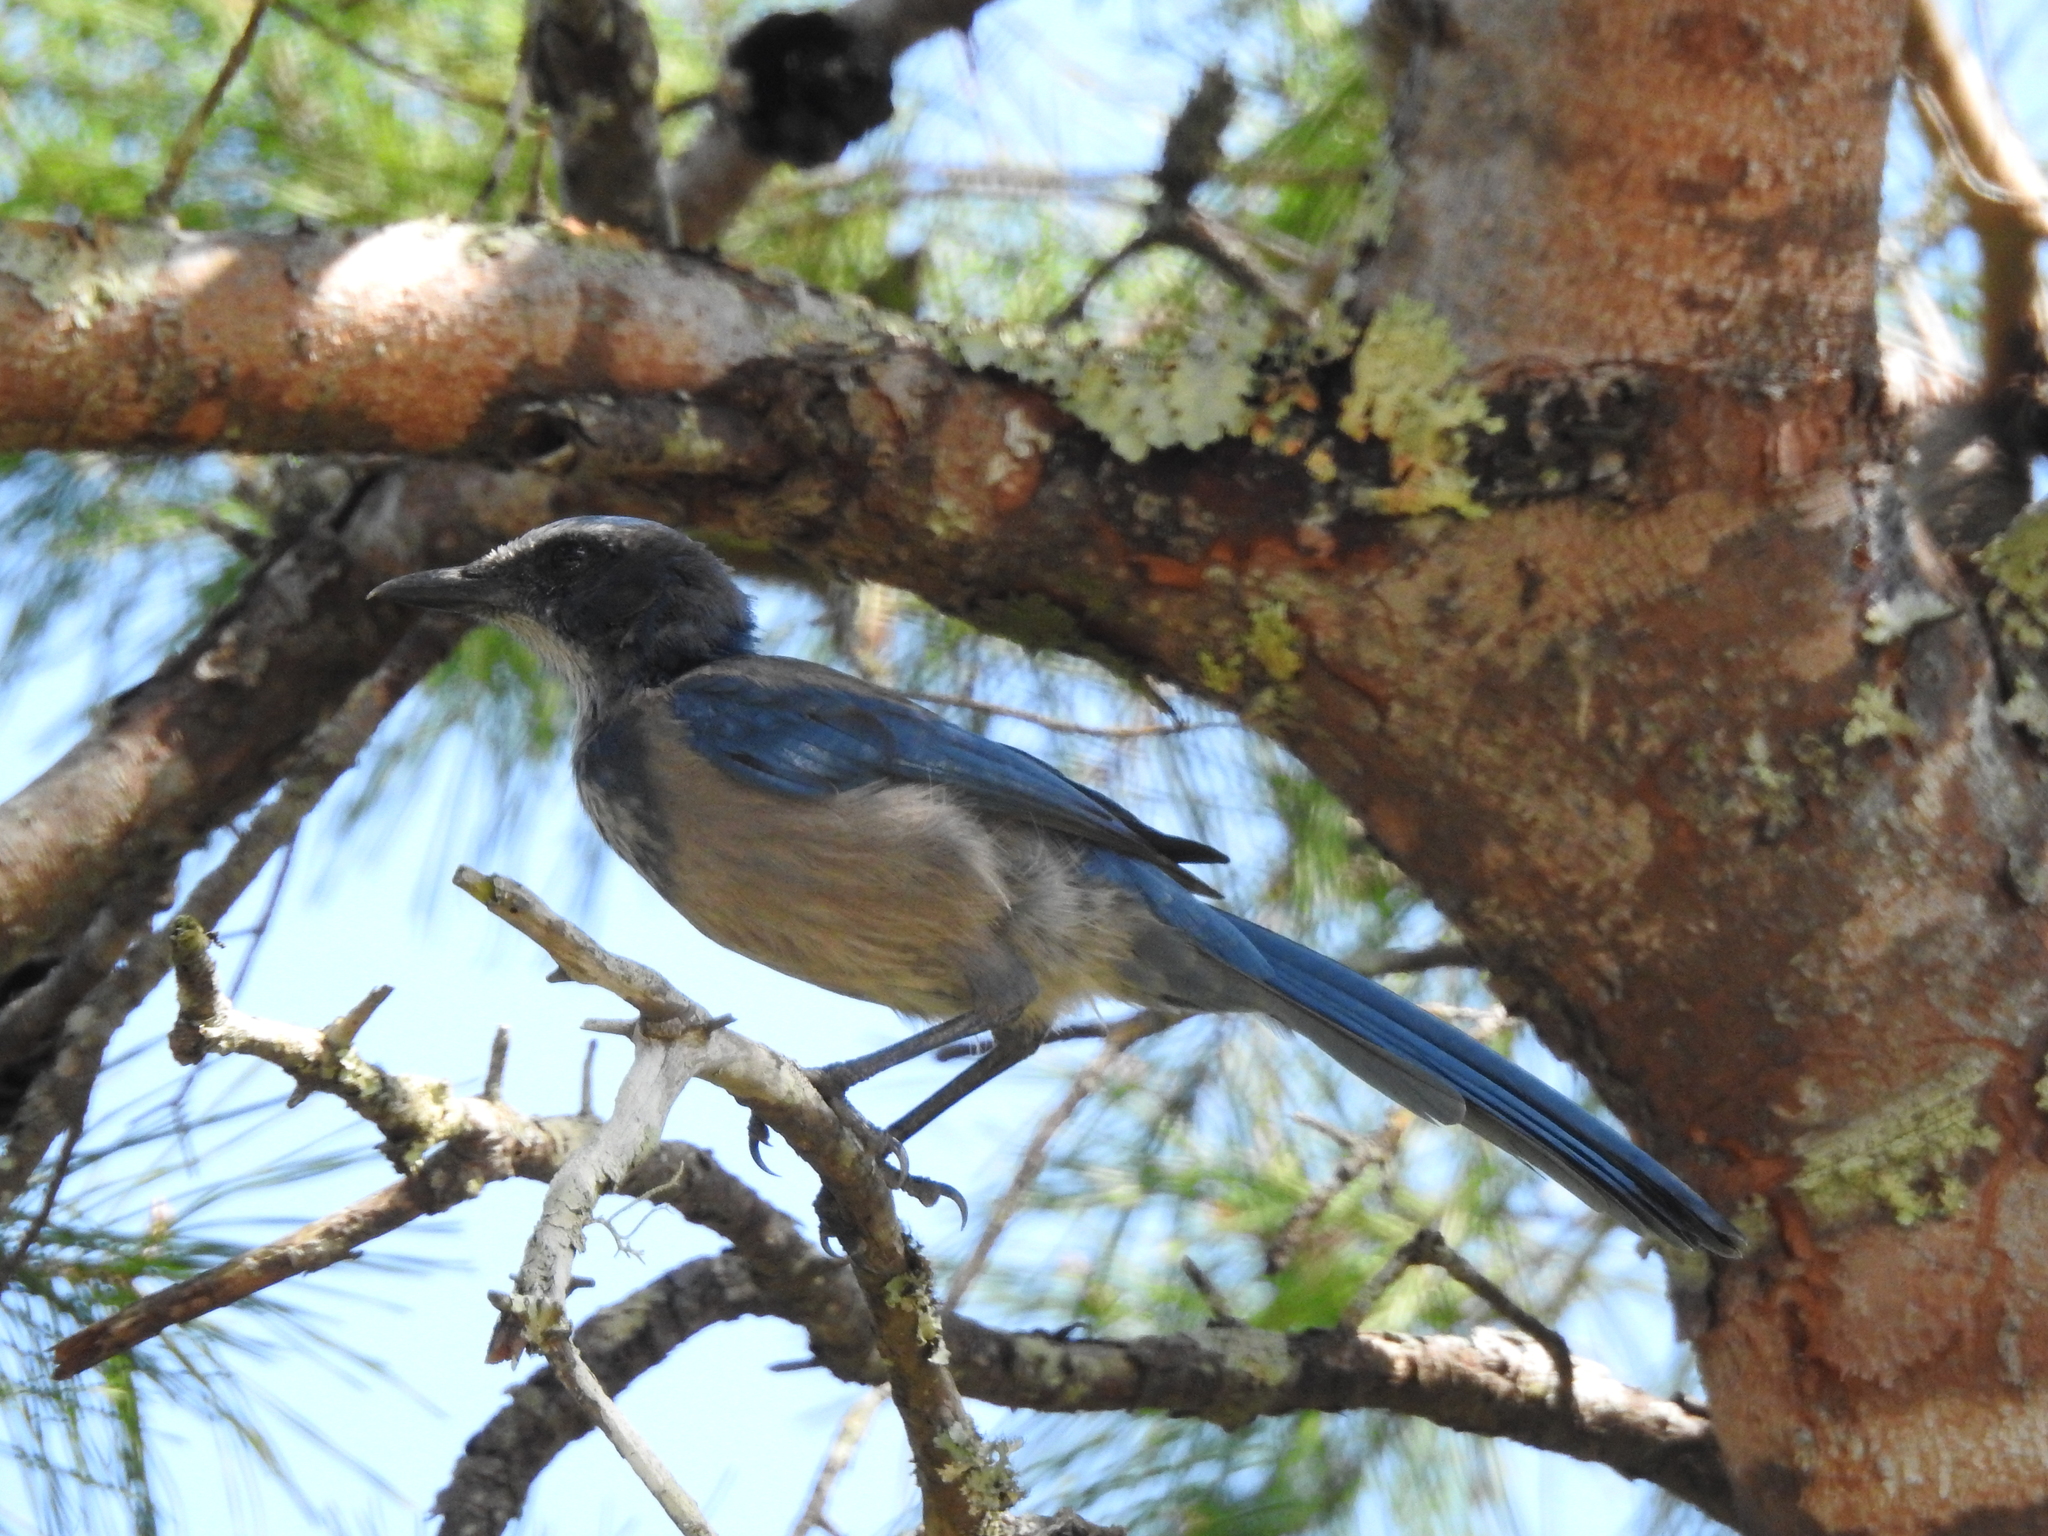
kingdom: Animalia
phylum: Chordata
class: Aves
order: Passeriformes
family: Corvidae
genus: Aphelocoma
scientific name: Aphelocoma coerulescens
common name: Florida scrub jay
